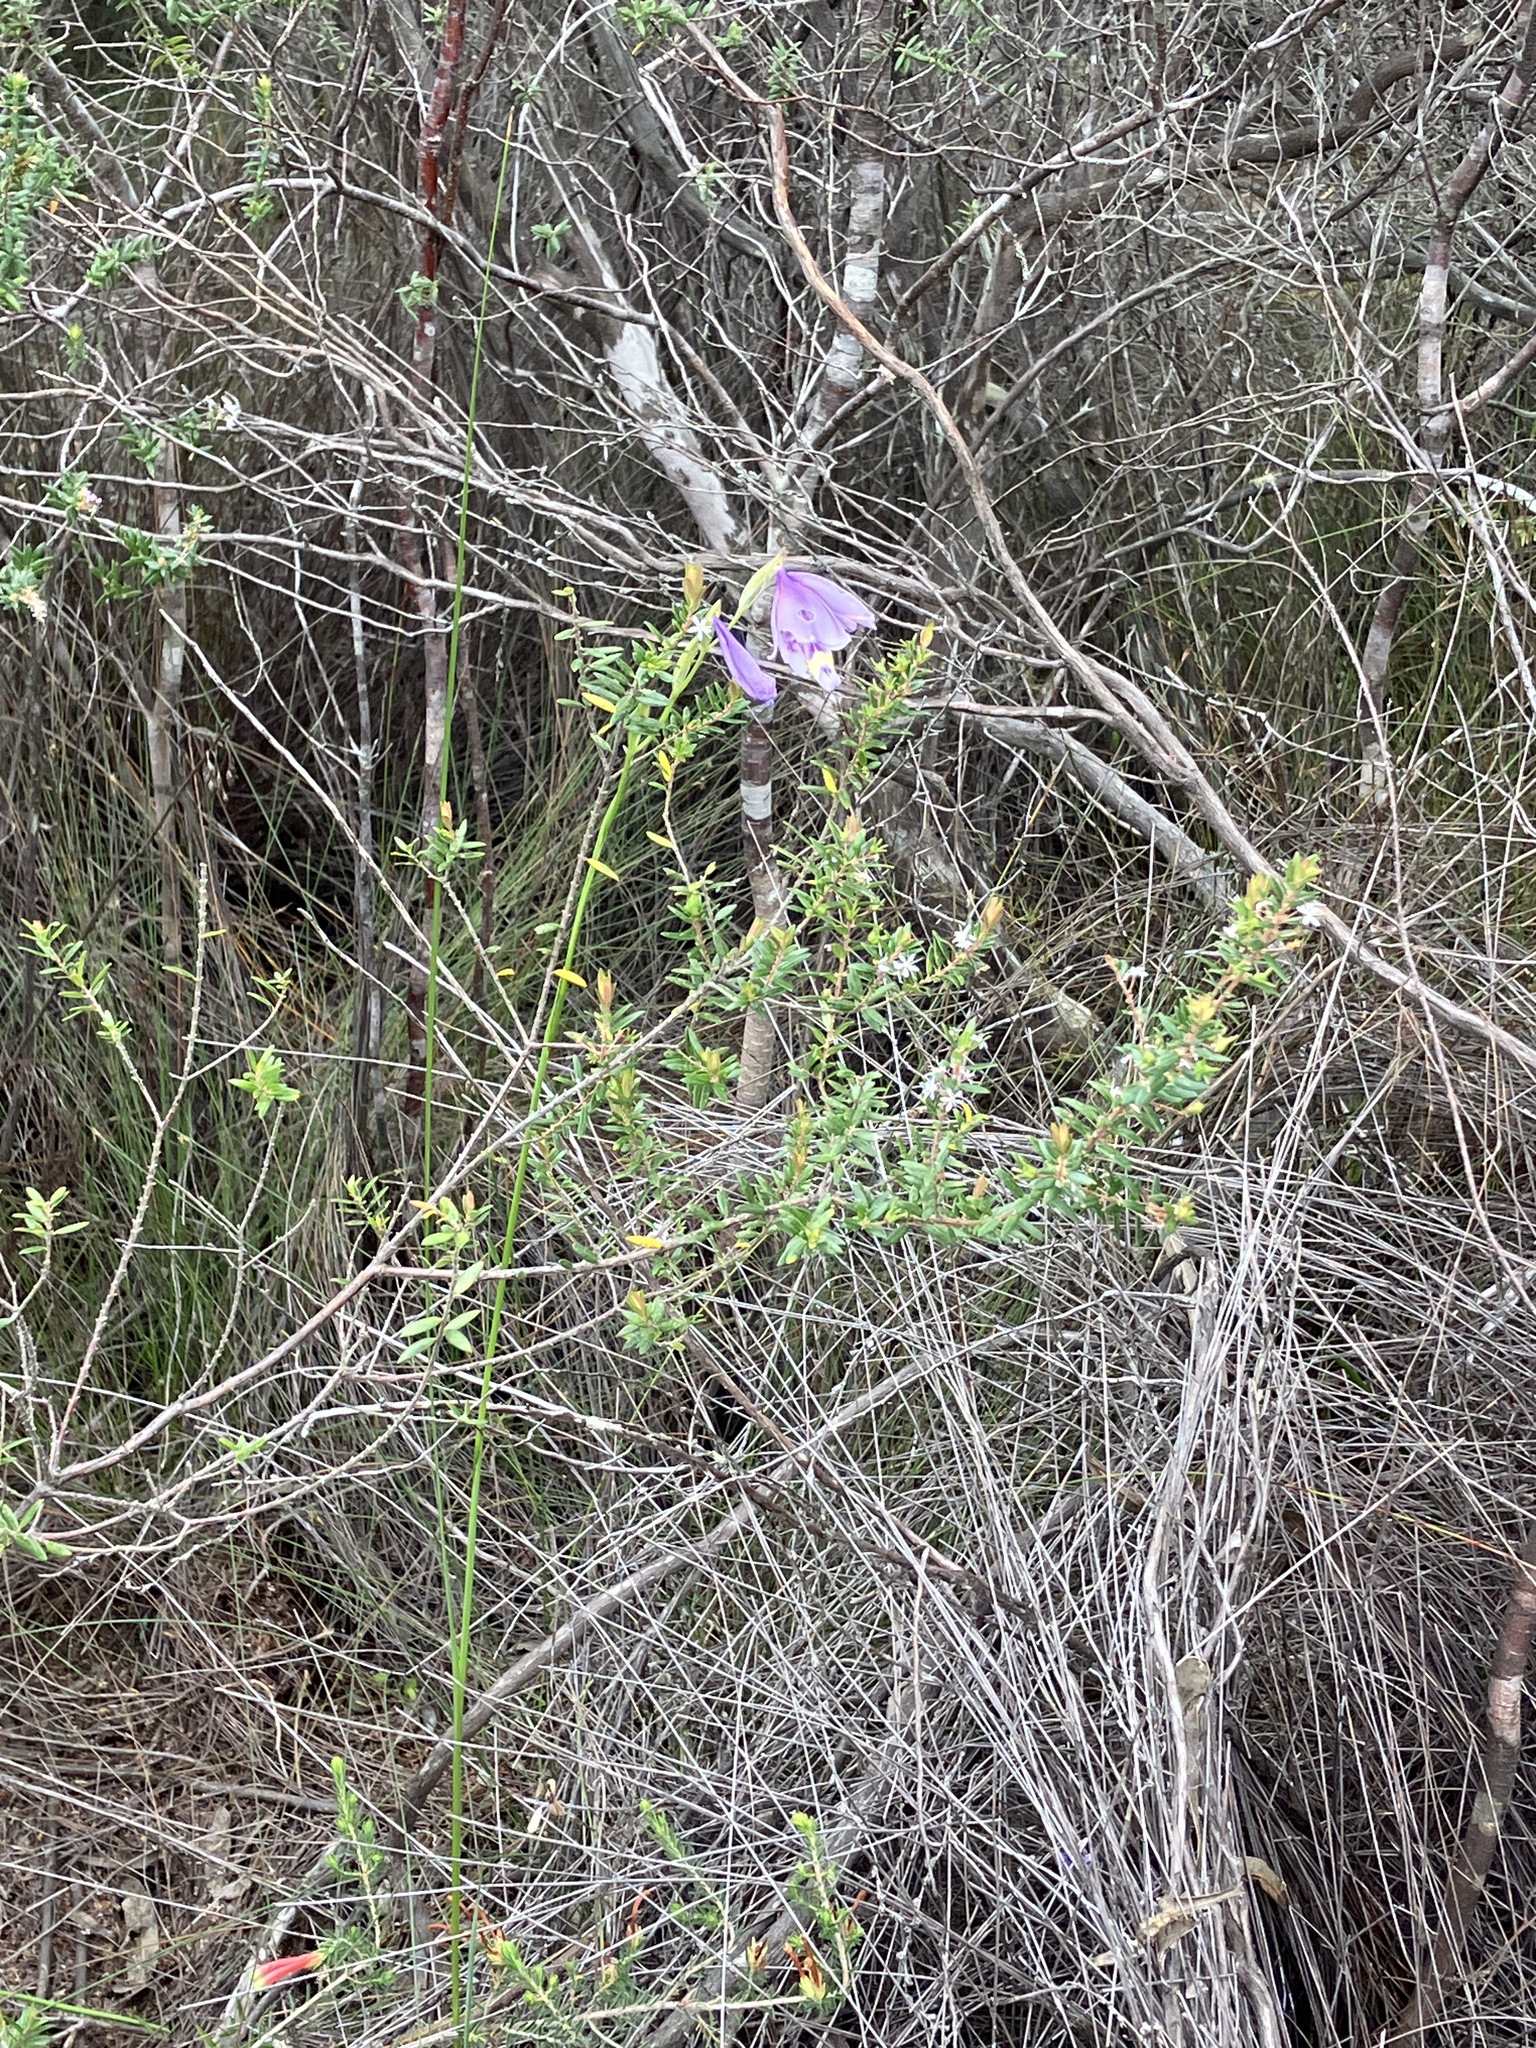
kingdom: Plantae
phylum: Tracheophyta
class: Liliopsida
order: Asparagales
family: Iridaceae
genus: Gladiolus
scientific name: Gladiolus rogersii
